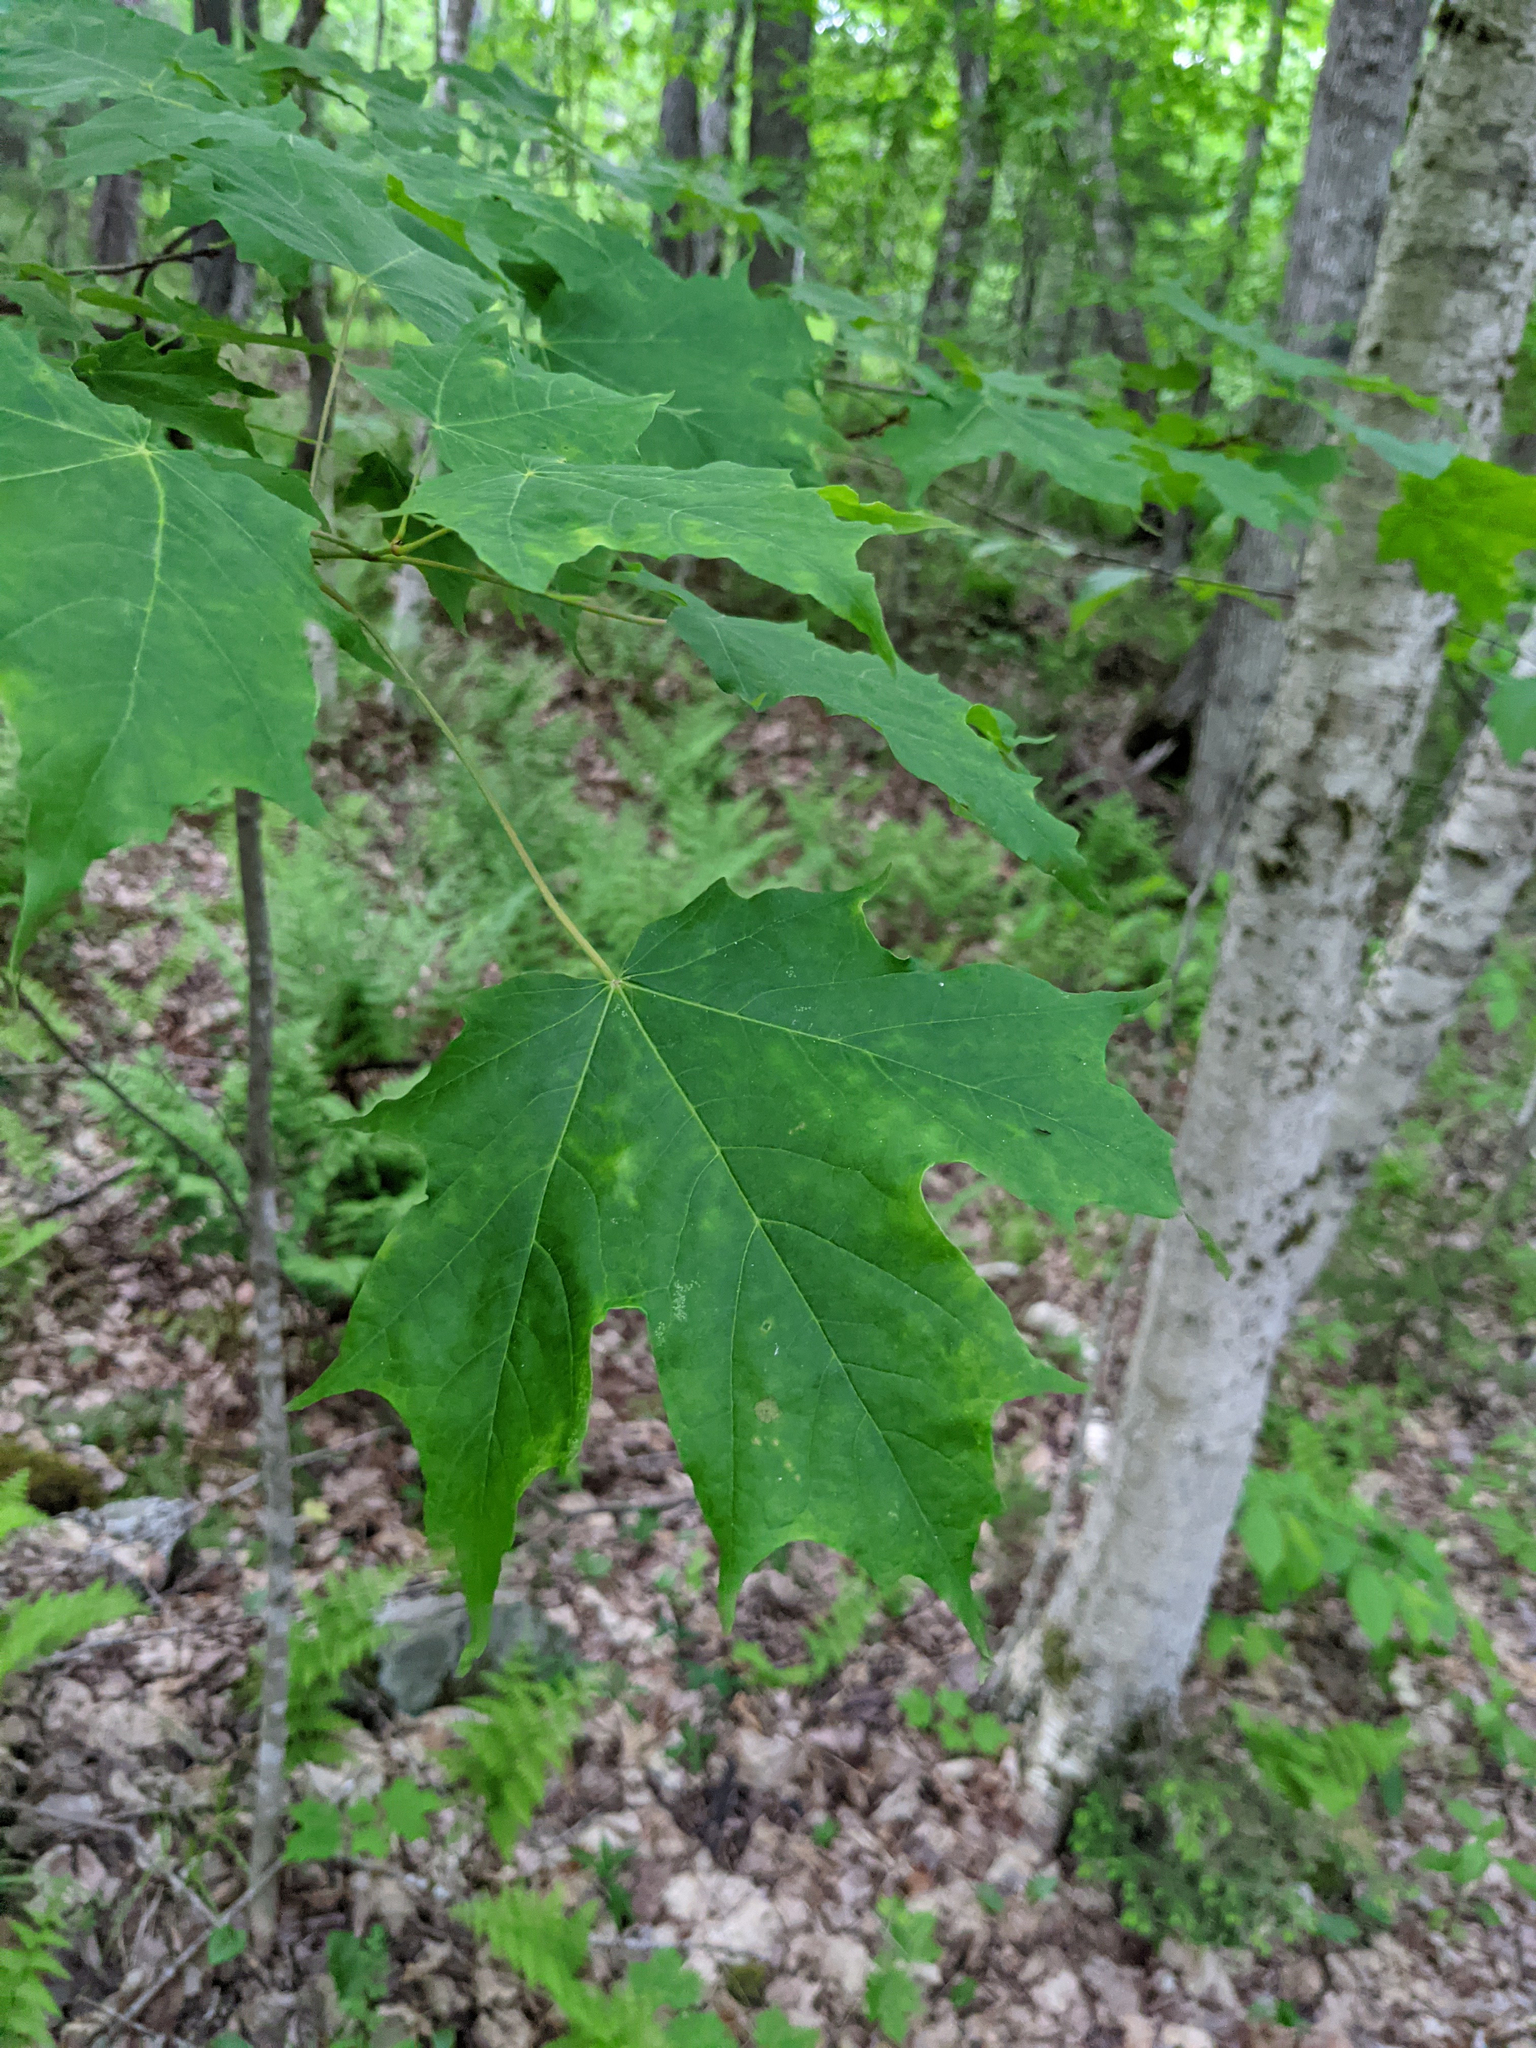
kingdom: Plantae
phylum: Tracheophyta
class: Magnoliopsida
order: Sapindales
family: Sapindaceae
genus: Acer
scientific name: Acer saccharum
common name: Sugar maple
